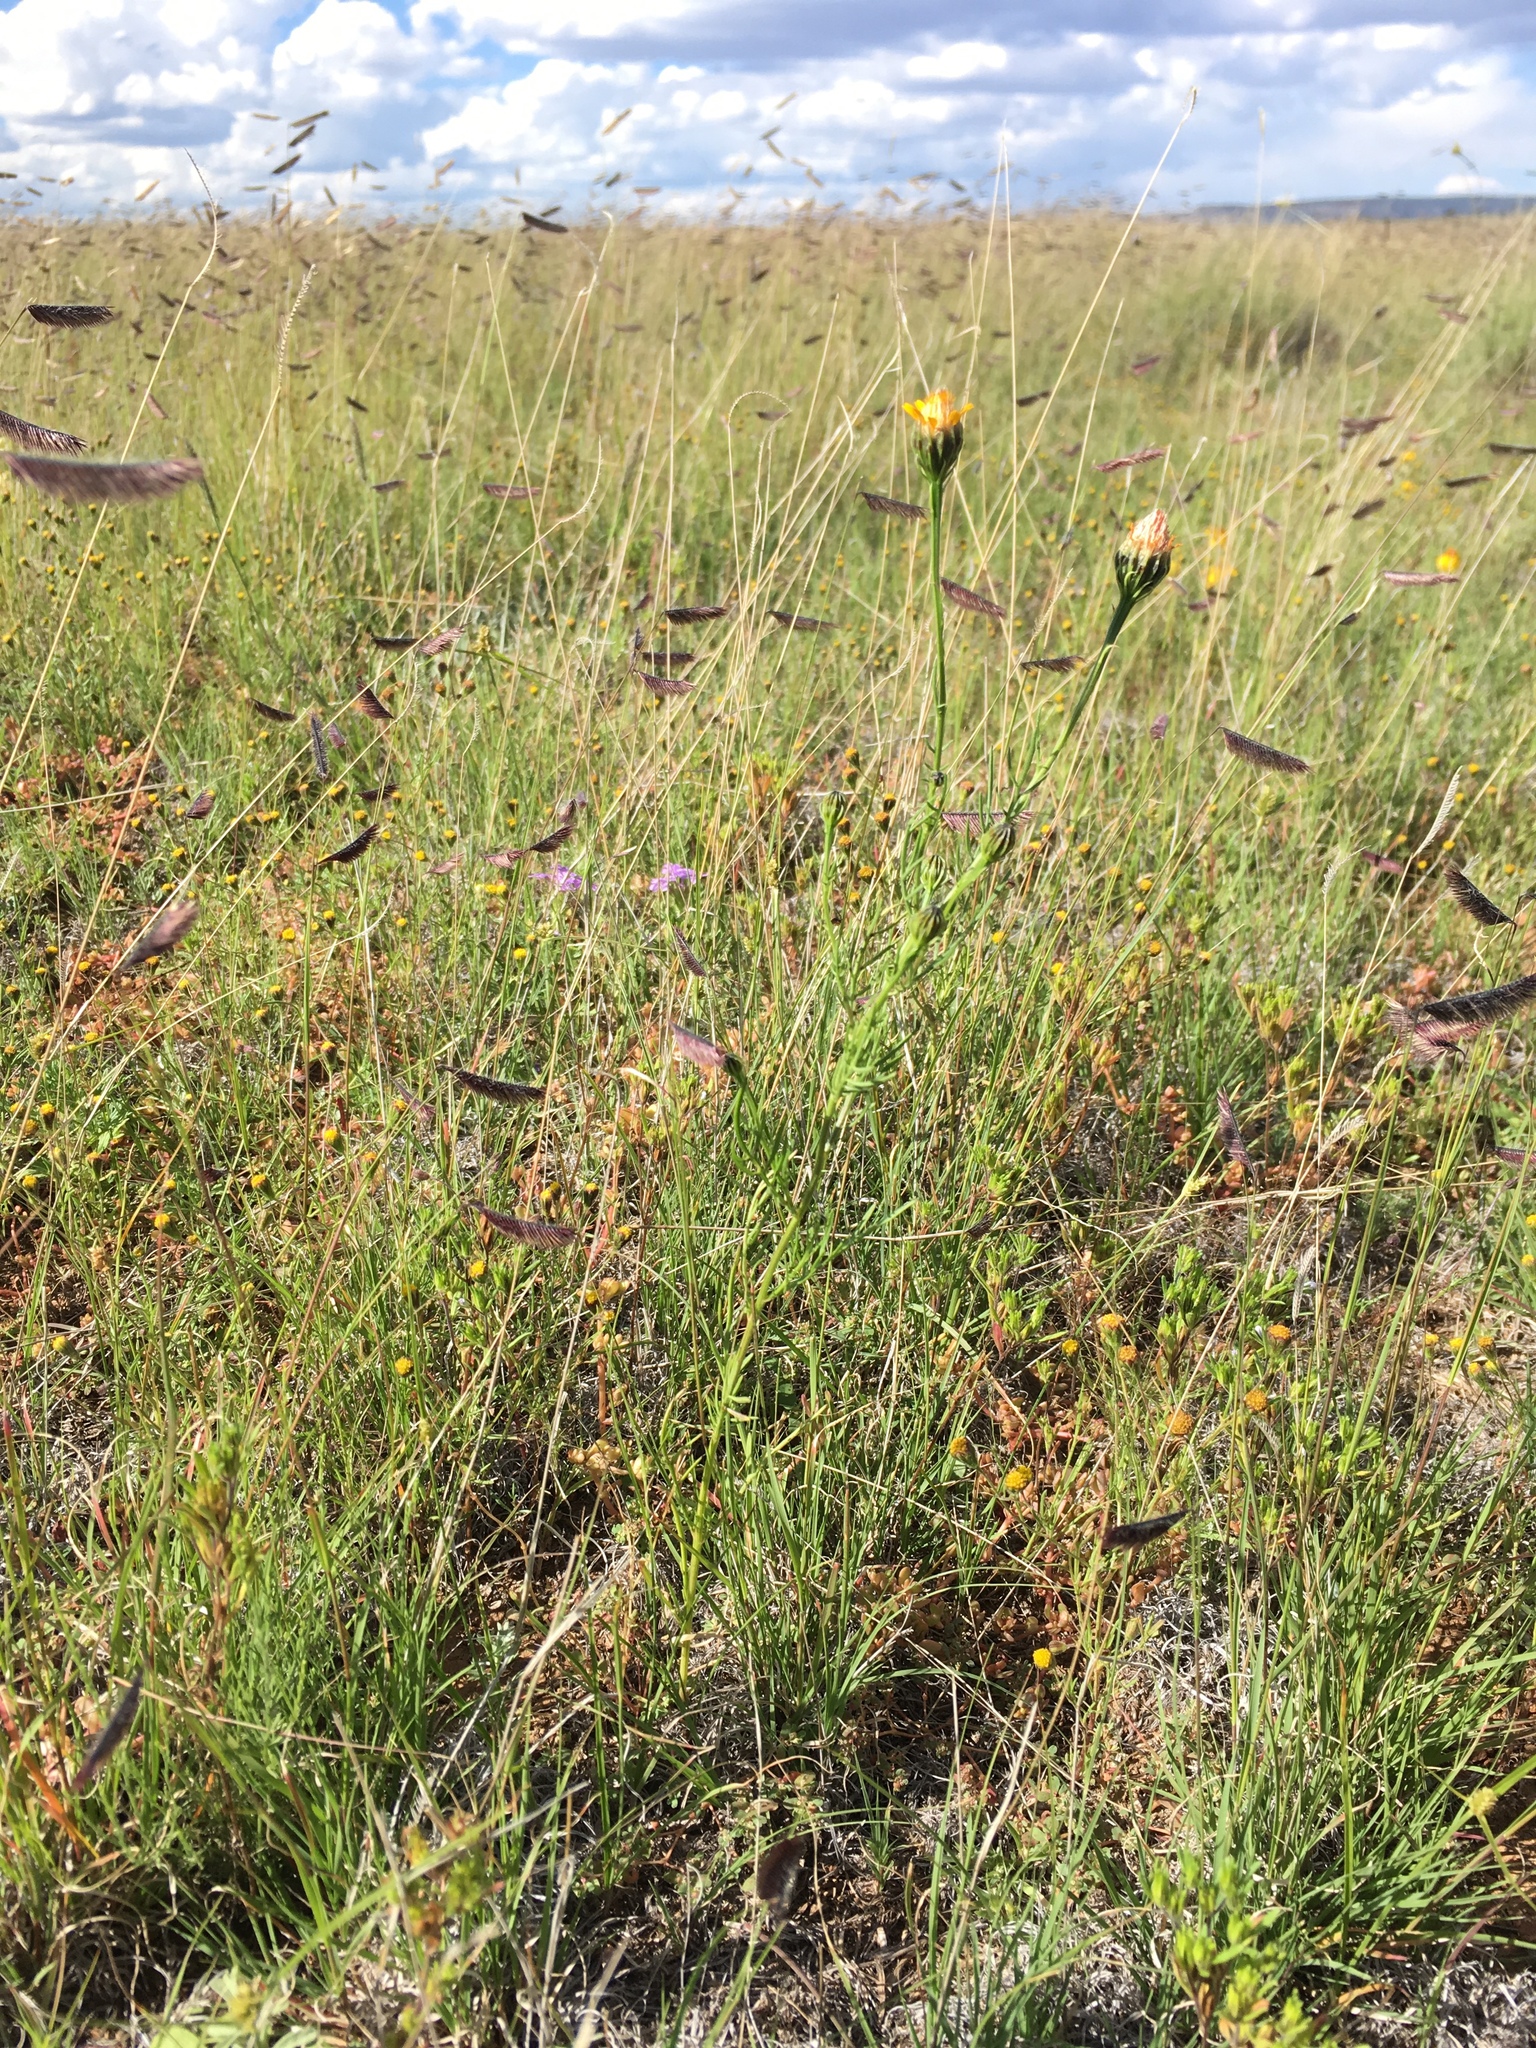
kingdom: Plantae
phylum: Tracheophyta
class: Magnoliopsida
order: Asterales
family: Asteraceae
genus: Adenophyllum
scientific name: Adenophyllum wrightii
